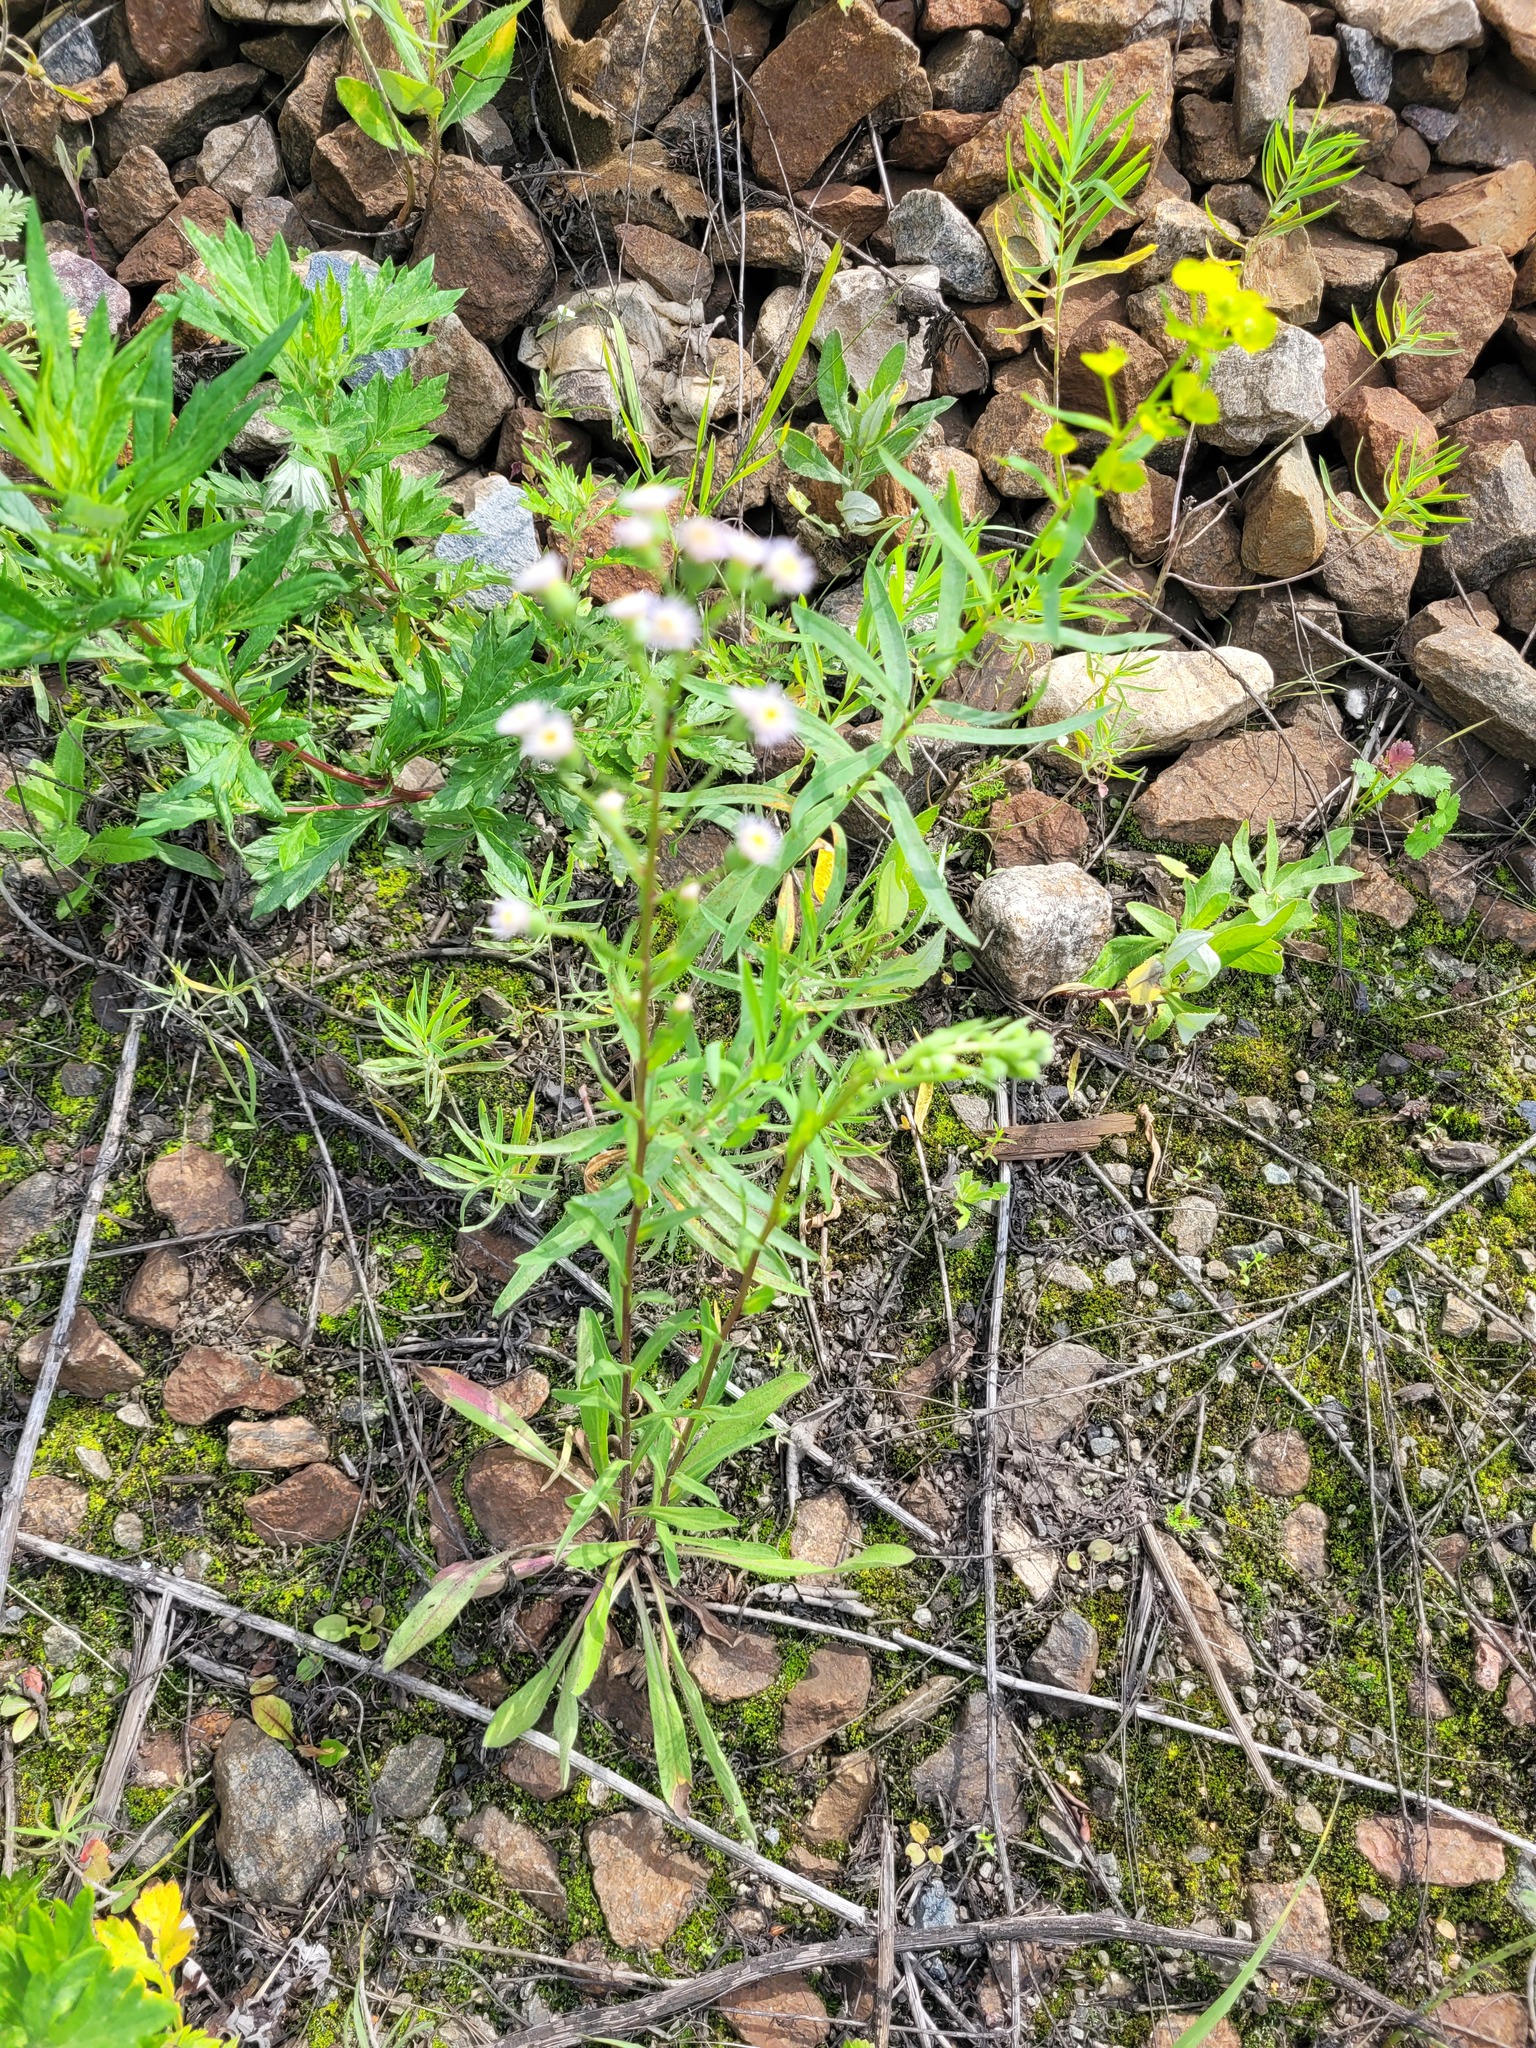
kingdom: Plantae
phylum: Tracheophyta
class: Magnoliopsida
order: Asterales
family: Asteraceae
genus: Erigeron
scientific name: Erigeron acris
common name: Blue fleabane
